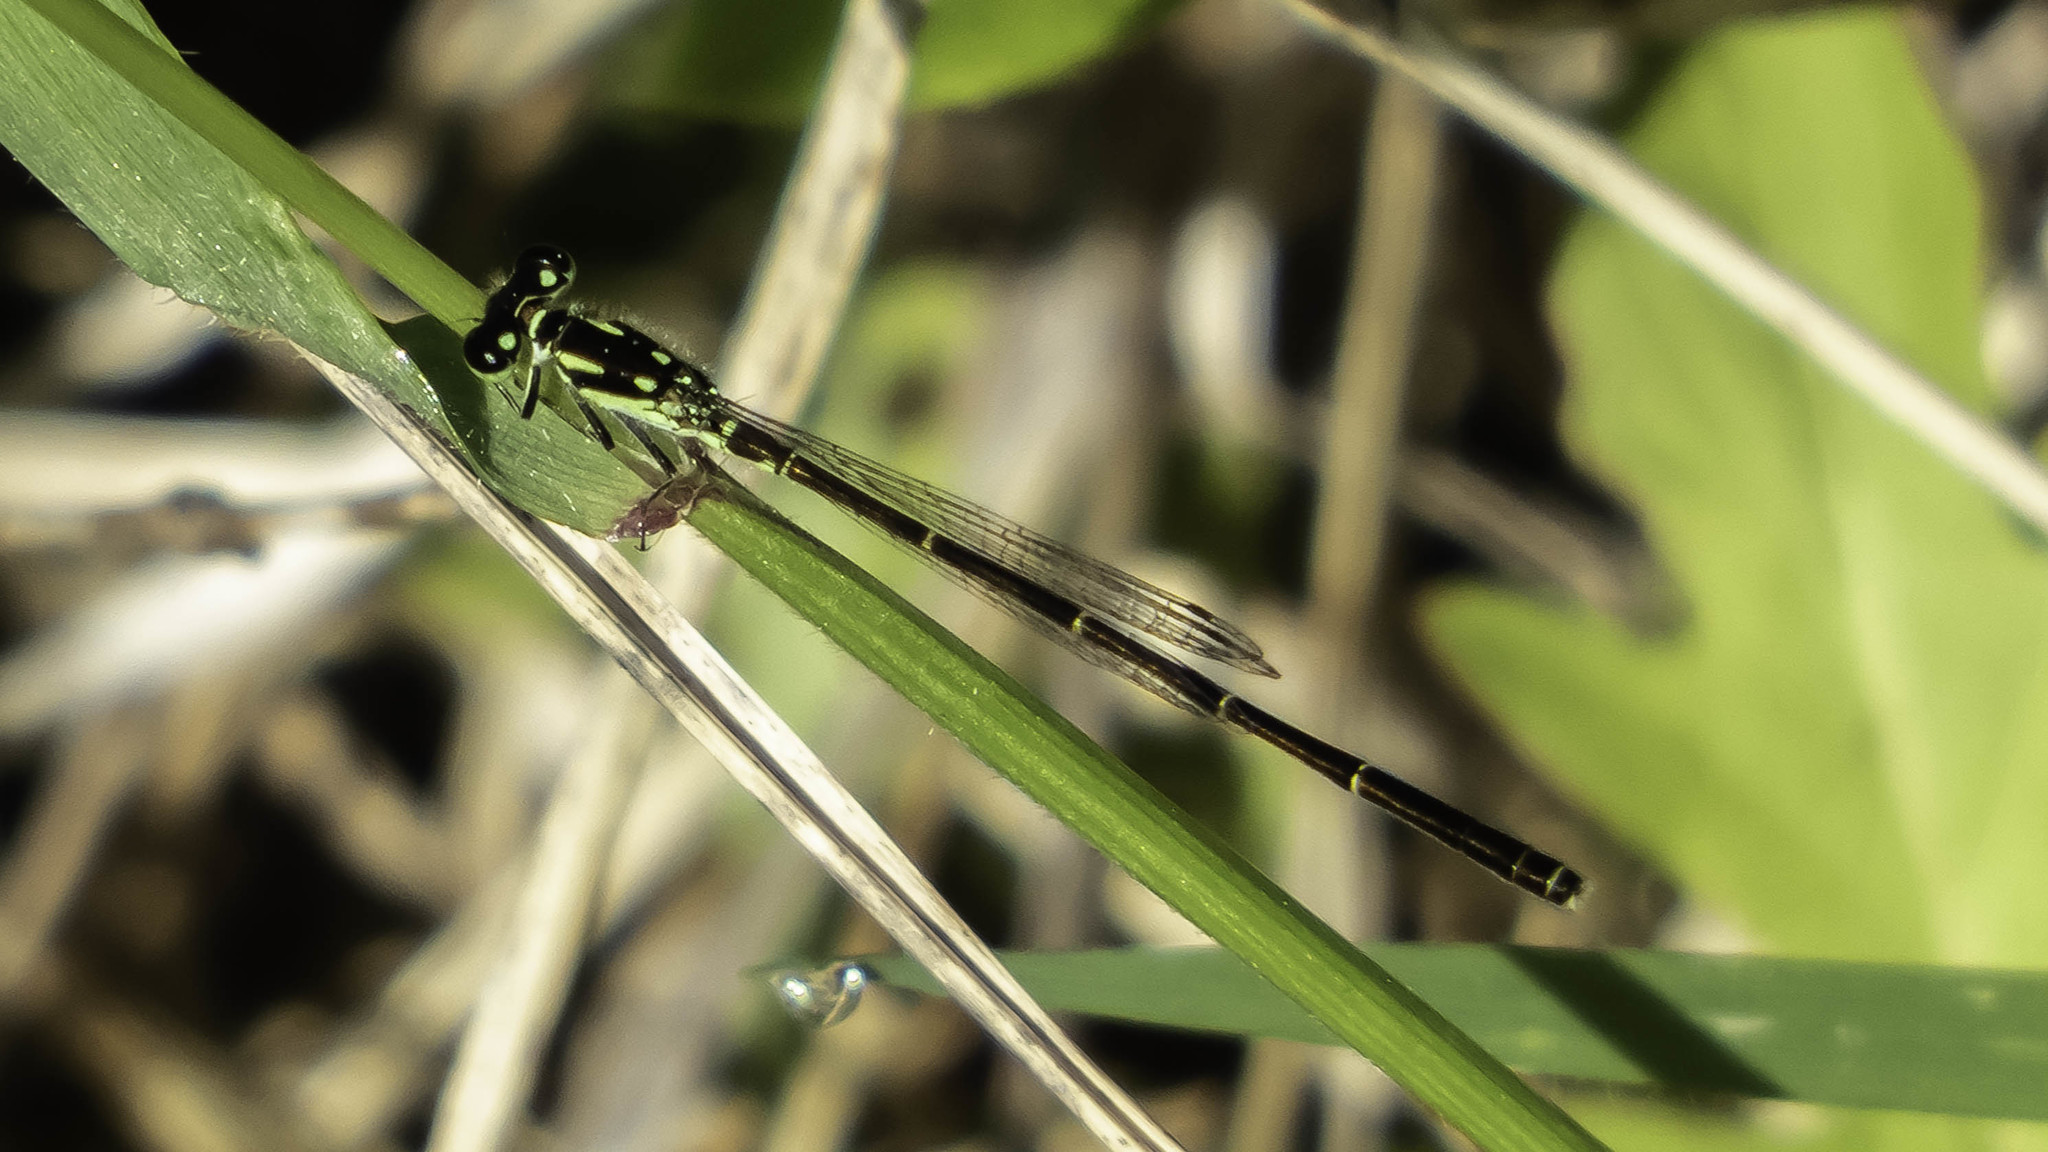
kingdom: Animalia
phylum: Arthropoda
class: Insecta
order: Odonata
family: Coenagrionidae
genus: Ischnura
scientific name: Ischnura posita
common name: Fragile forktail
